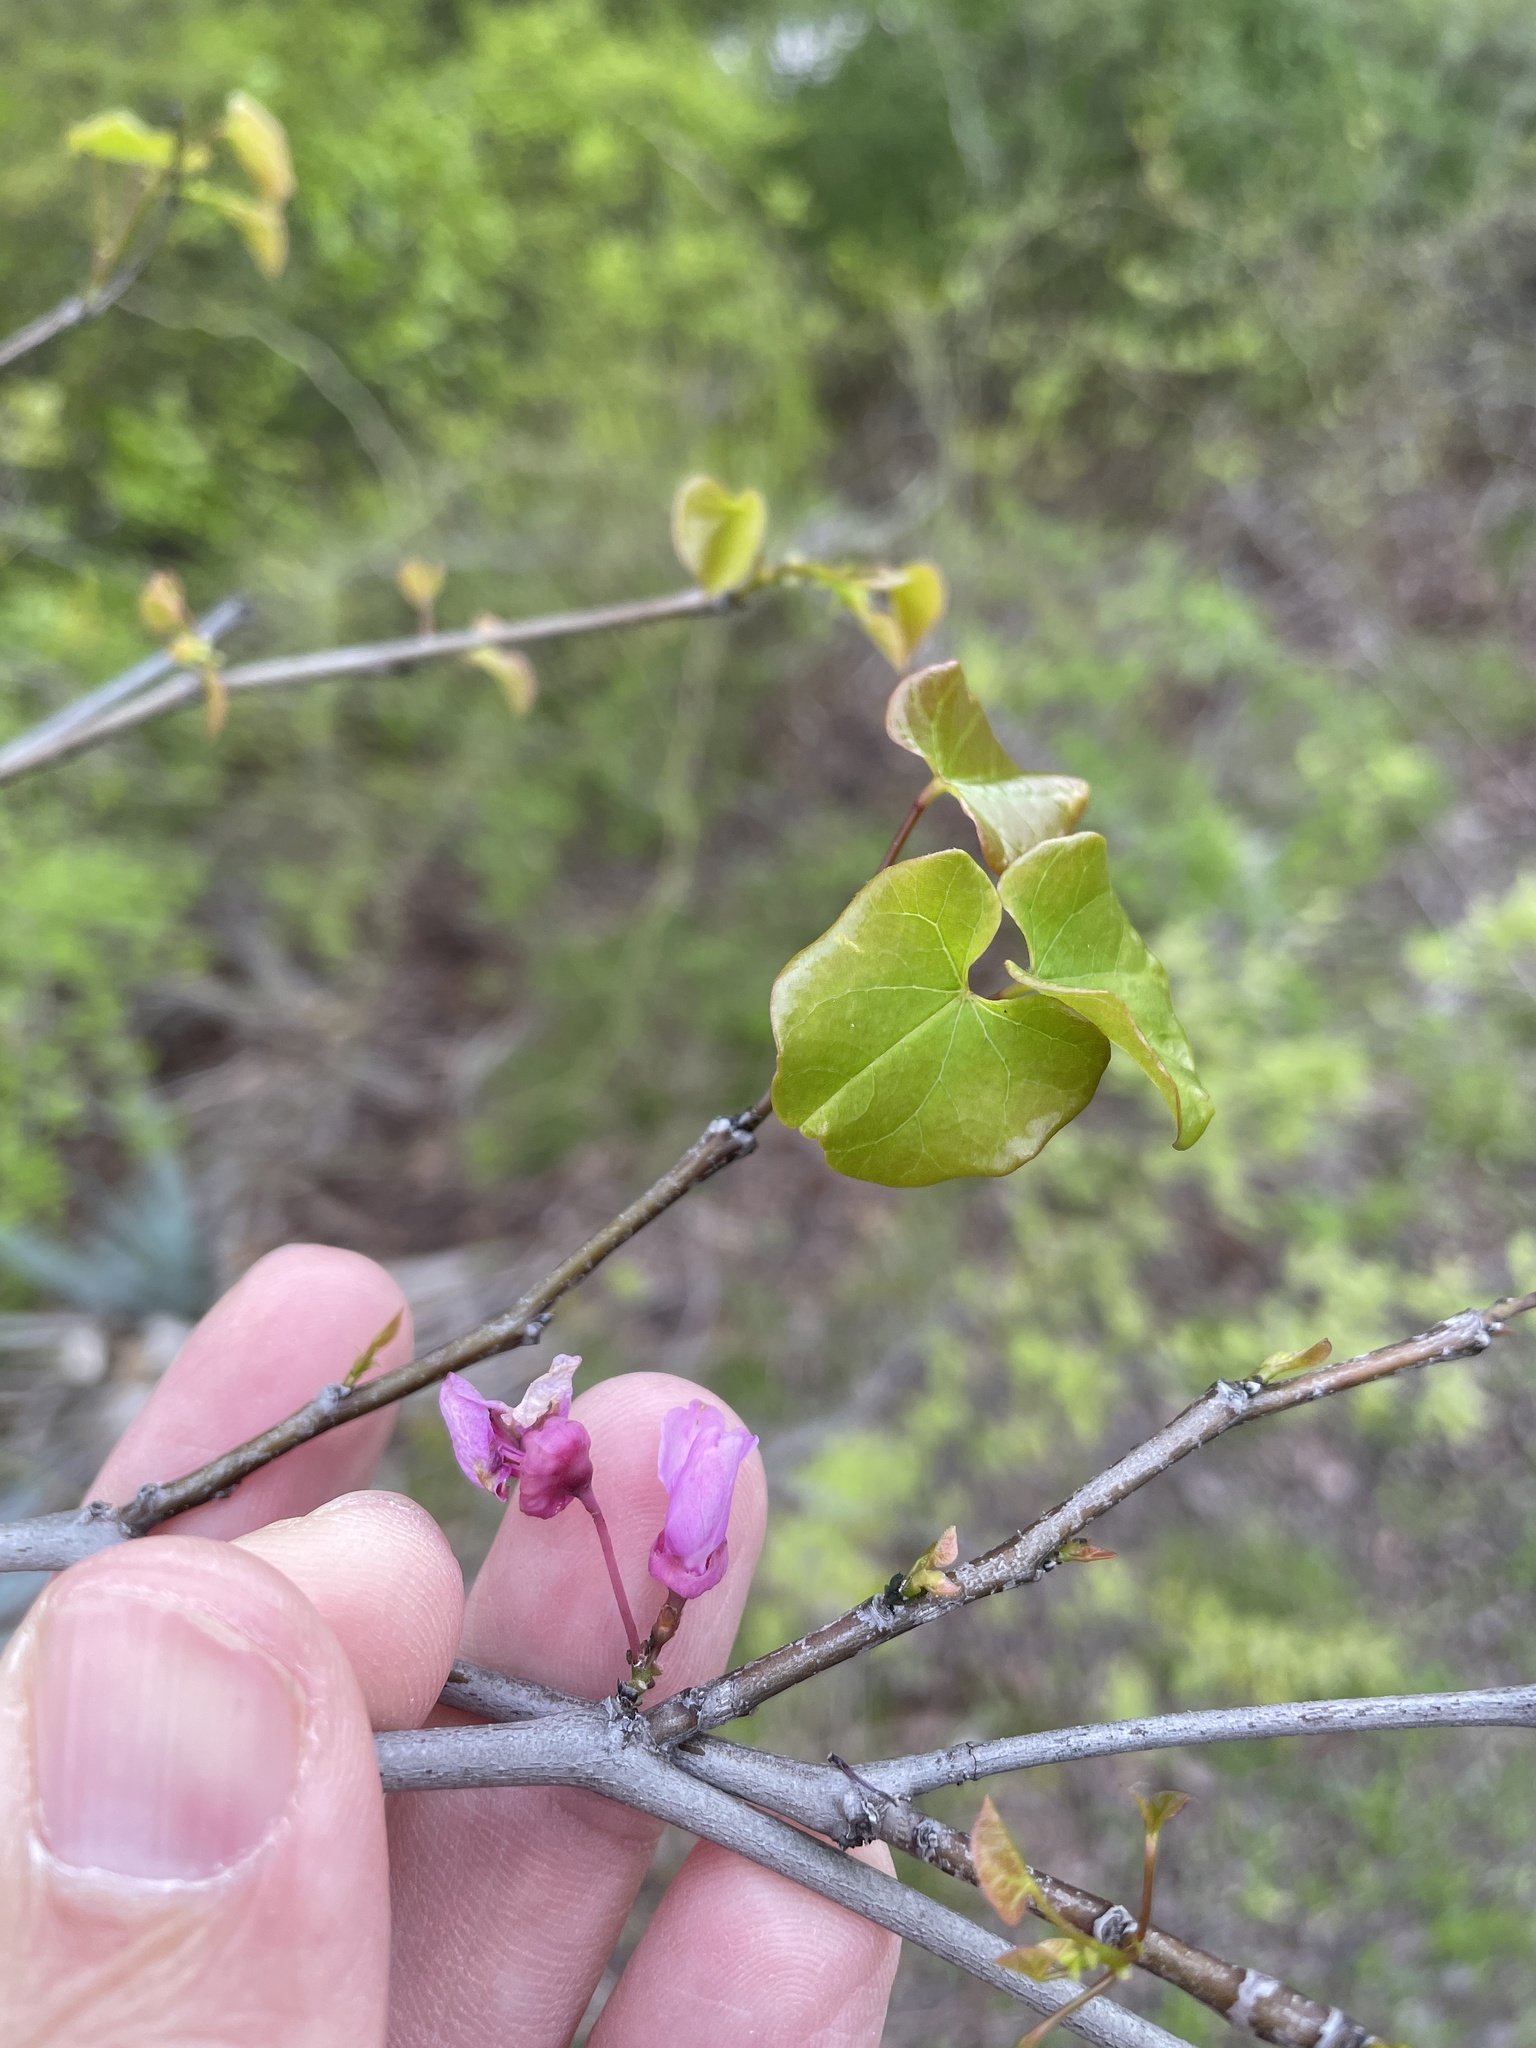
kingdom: Plantae
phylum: Tracheophyta
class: Magnoliopsida
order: Fabales
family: Fabaceae
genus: Cercis
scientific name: Cercis canadensis
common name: Eastern redbud
